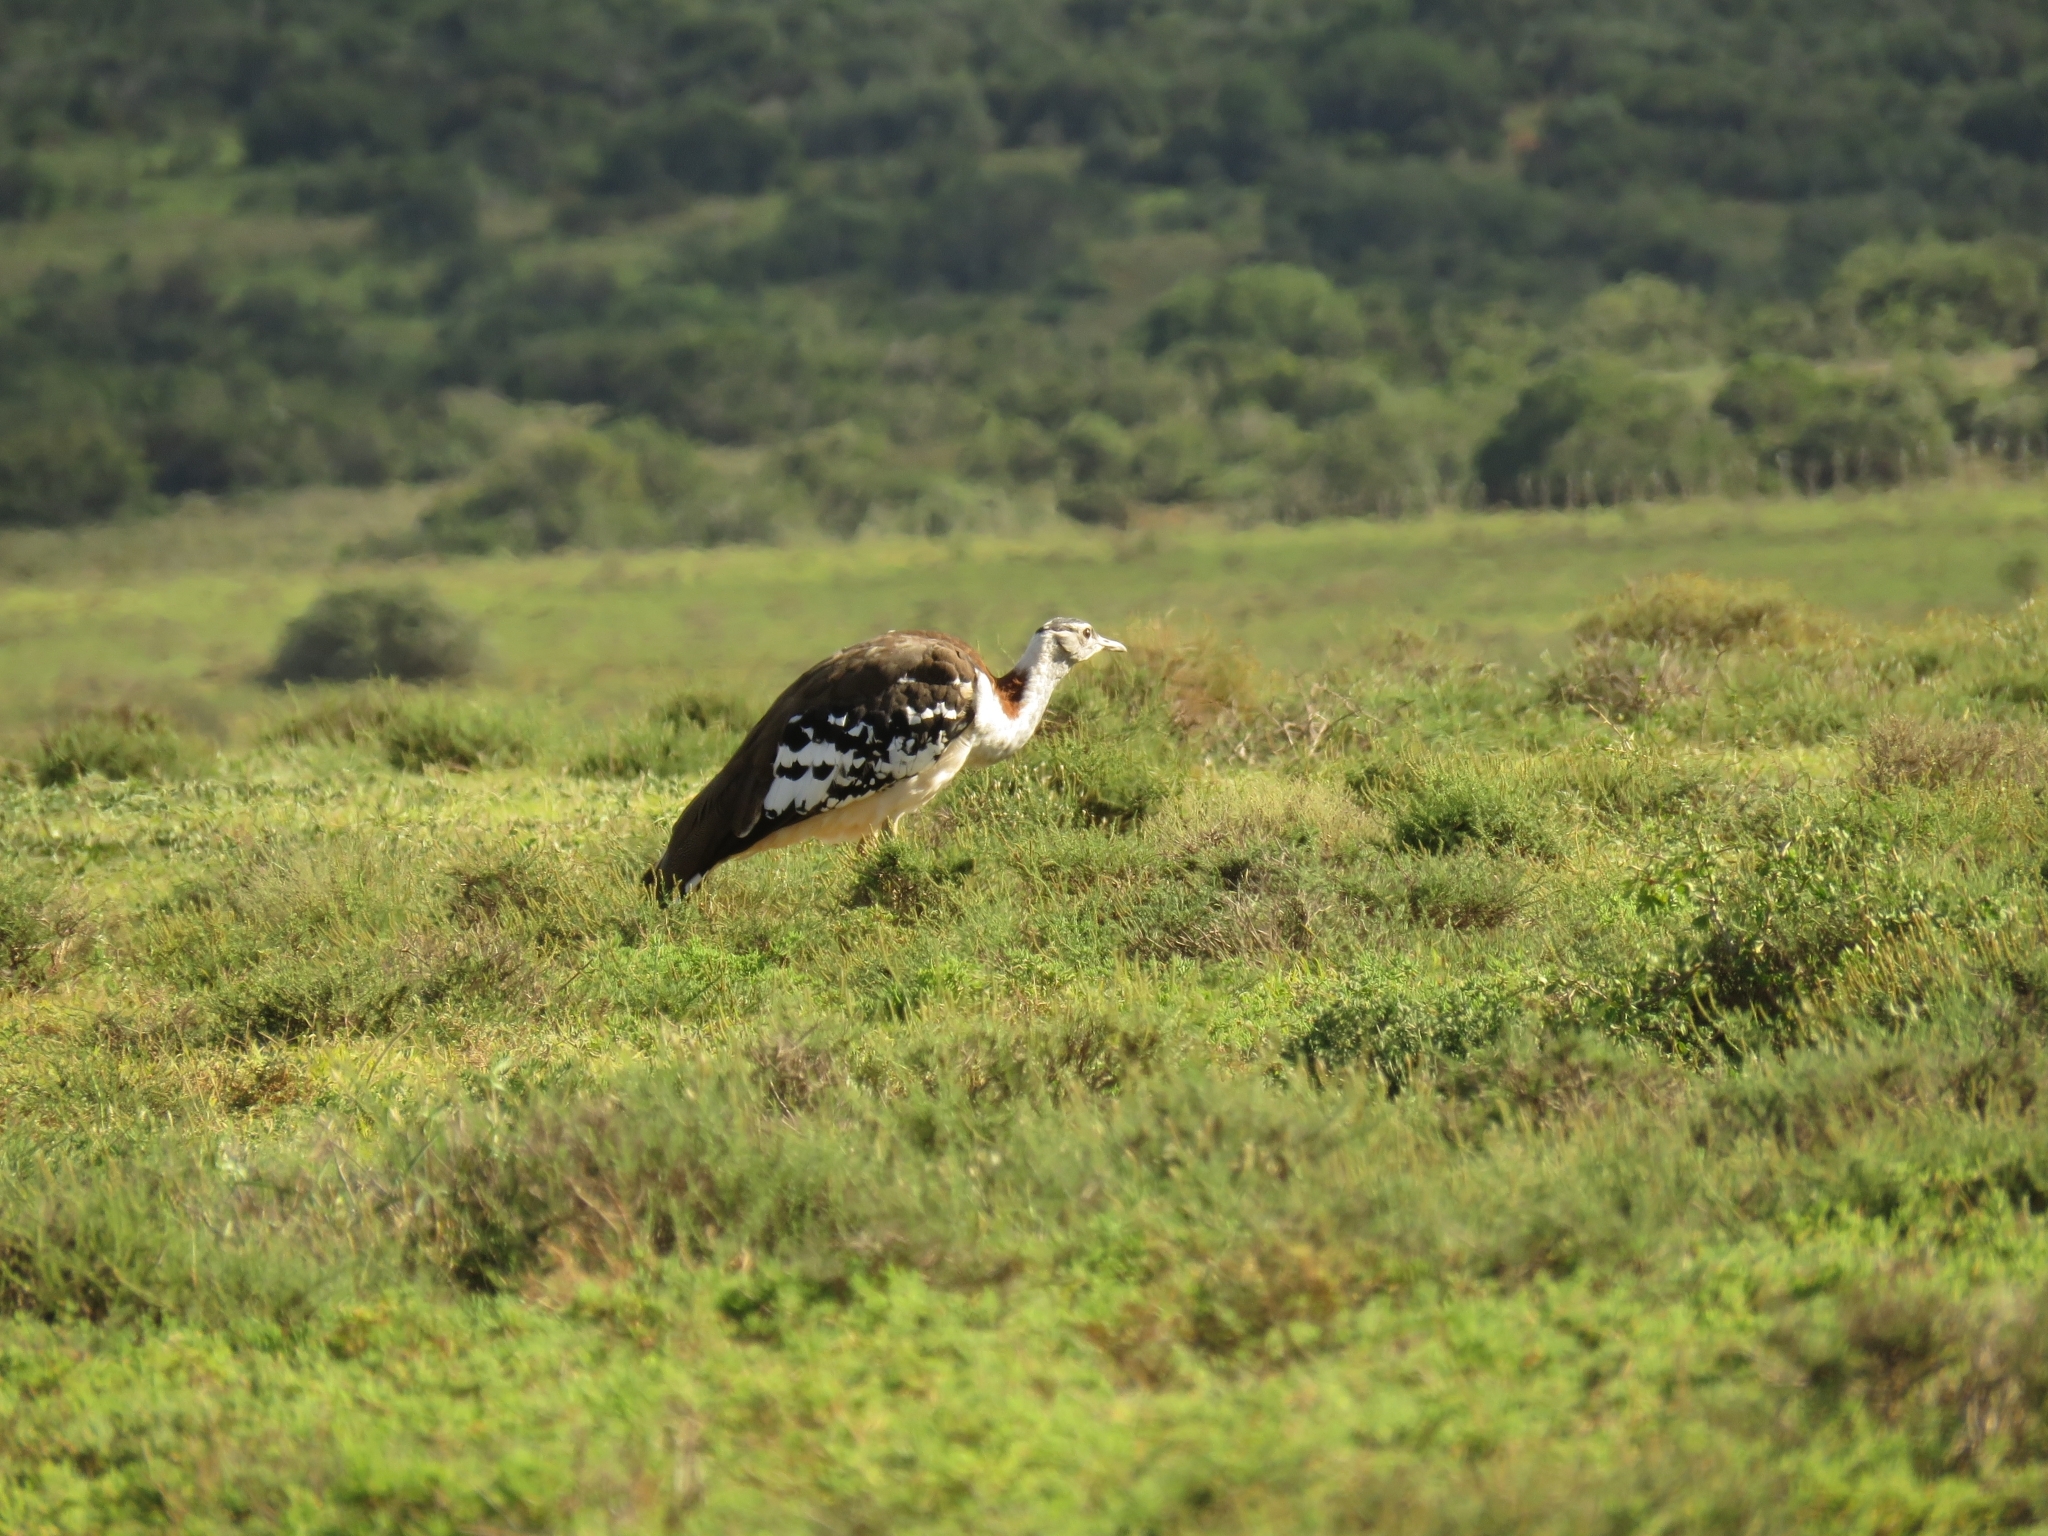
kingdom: Animalia
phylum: Chordata
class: Aves
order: Otidiformes
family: Otididae
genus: Neotis
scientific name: Neotis denhami
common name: Denham's bustard
